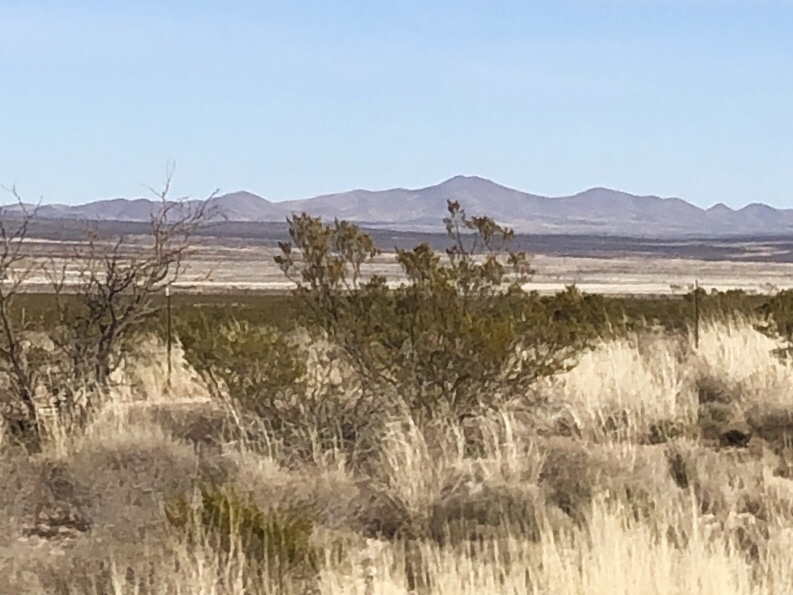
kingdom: Plantae
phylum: Tracheophyta
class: Magnoliopsida
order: Zygophyllales
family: Zygophyllaceae
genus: Larrea
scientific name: Larrea tridentata
